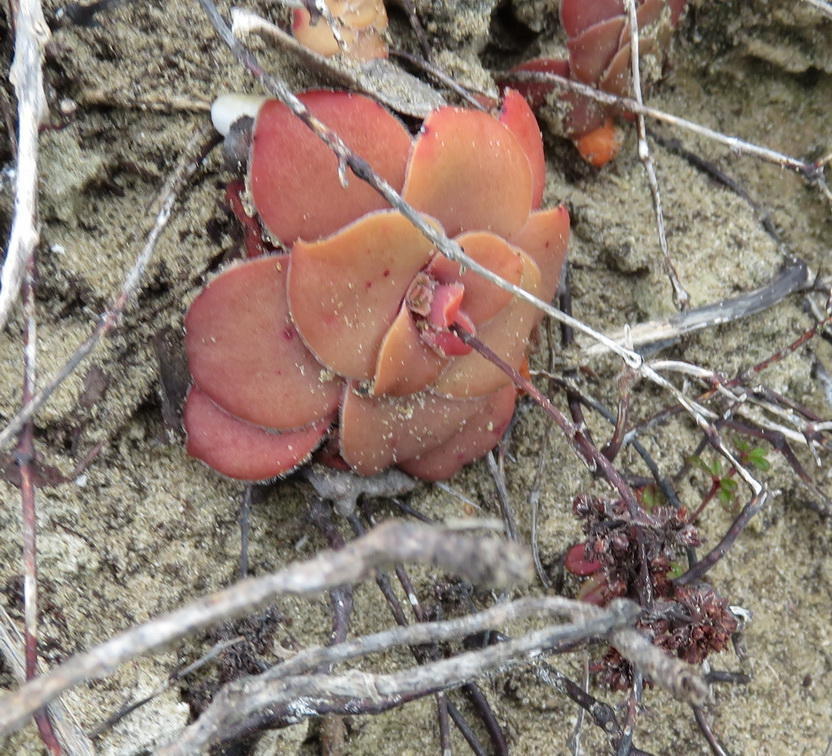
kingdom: Plantae
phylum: Tracheophyta
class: Magnoliopsida
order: Saxifragales
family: Crassulaceae
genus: Crassula
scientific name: Crassula orbicularis
